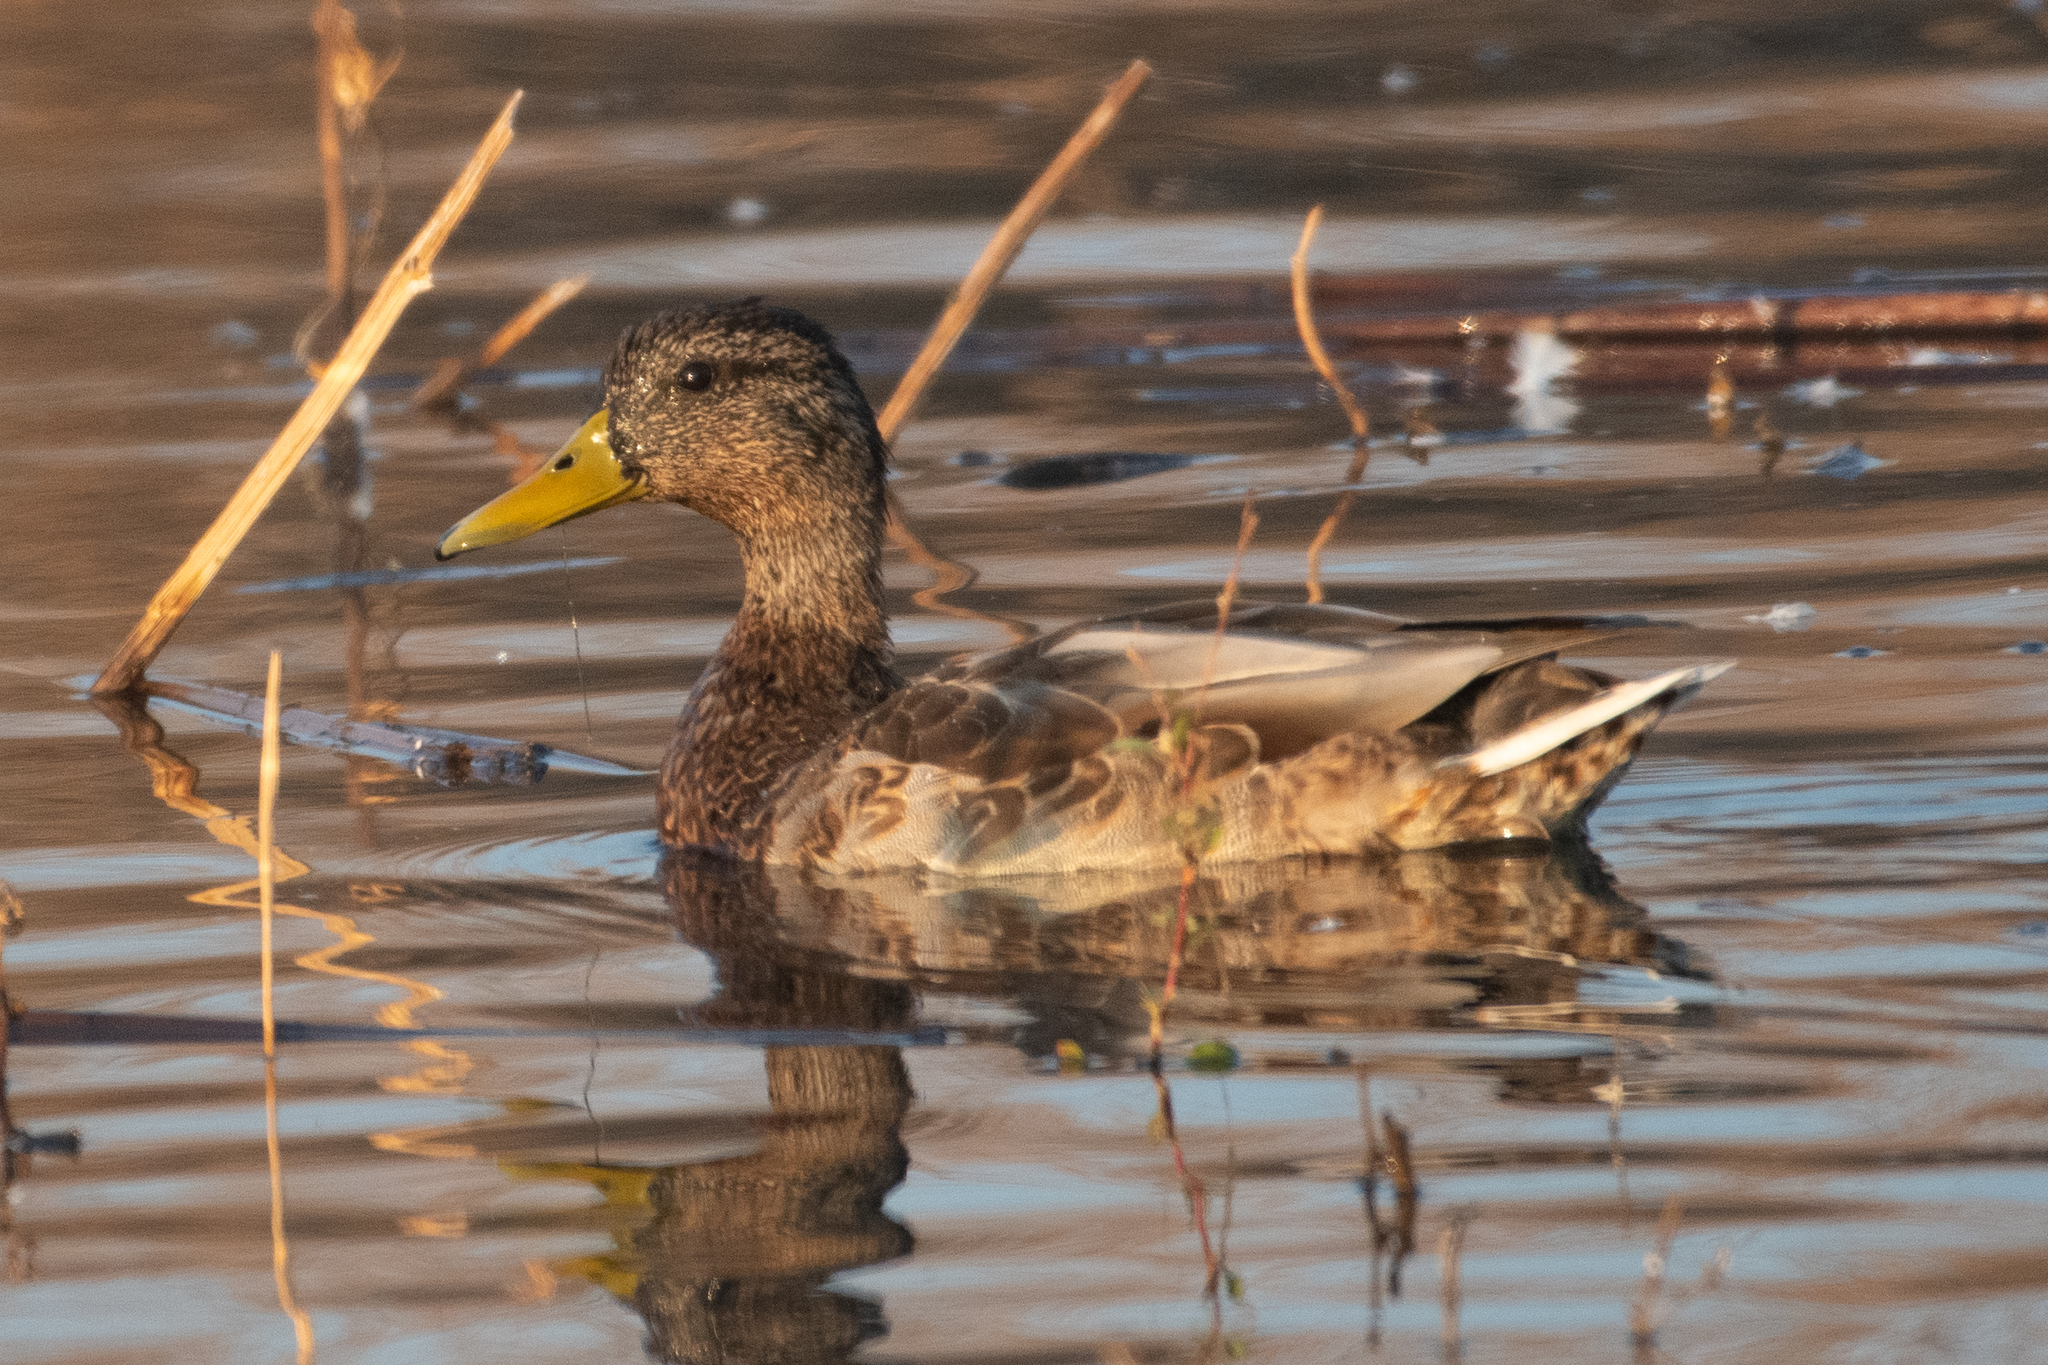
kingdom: Animalia
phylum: Chordata
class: Aves
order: Anseriformes
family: Anatidae
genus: Anas
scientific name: Anas platyrhynchos
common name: Mallard
